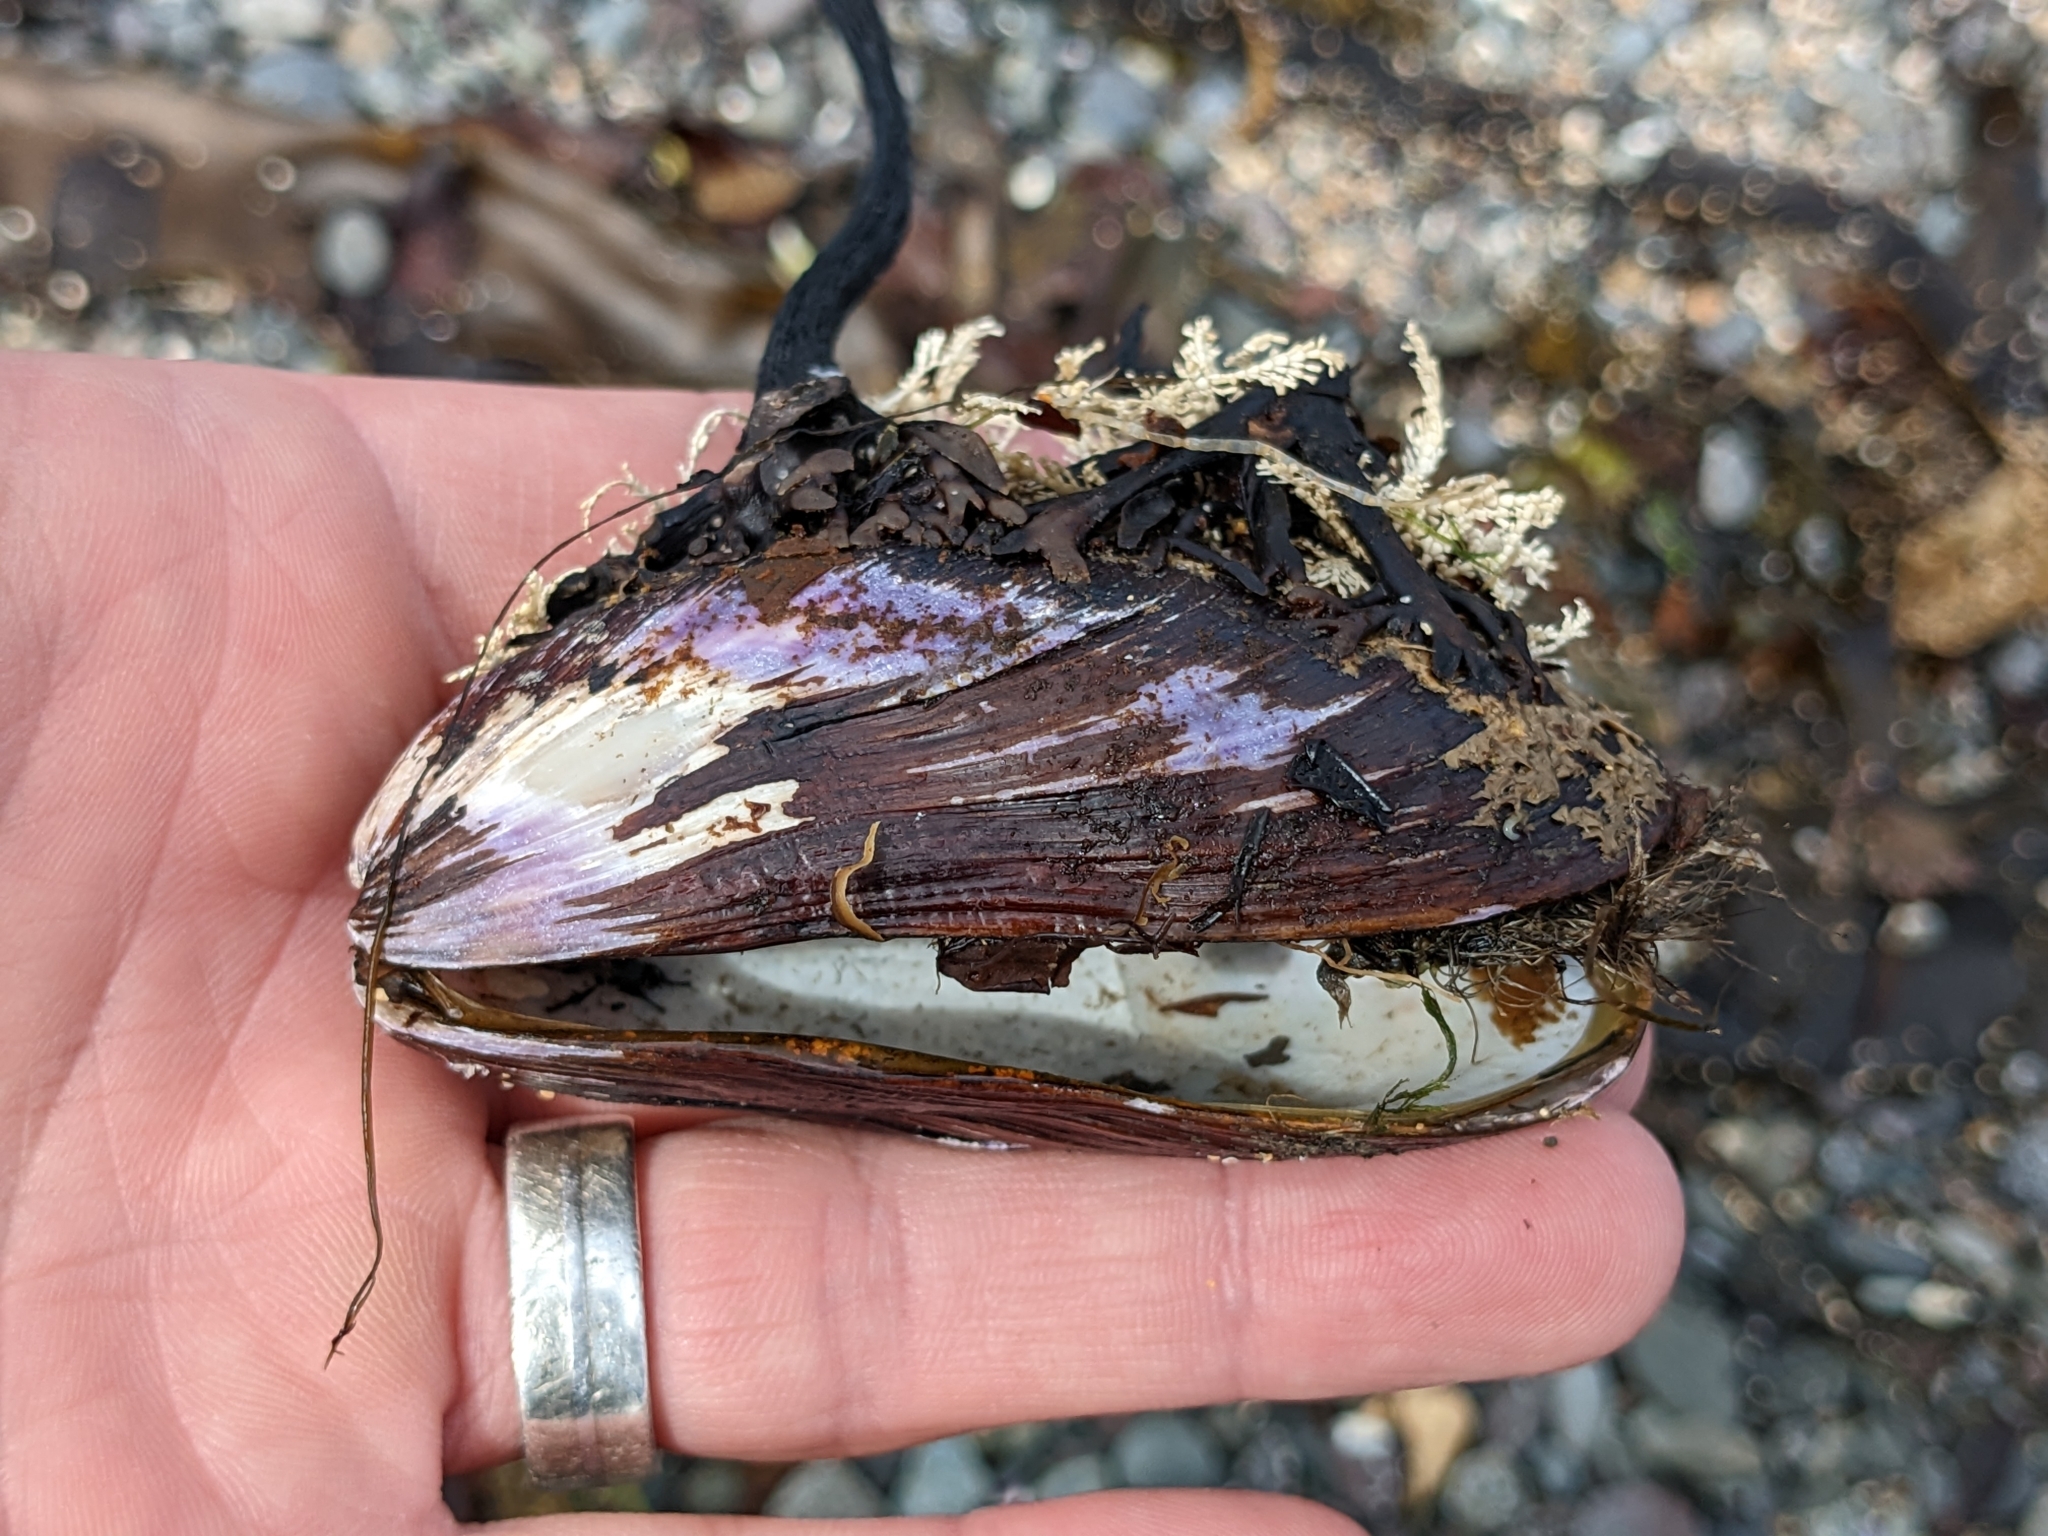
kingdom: Animalia
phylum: Mollusca
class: Bivalvia
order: Mytilida
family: Mytilidae
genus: Modiolus
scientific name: Modiolus modiolus
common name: Horse-mussel
